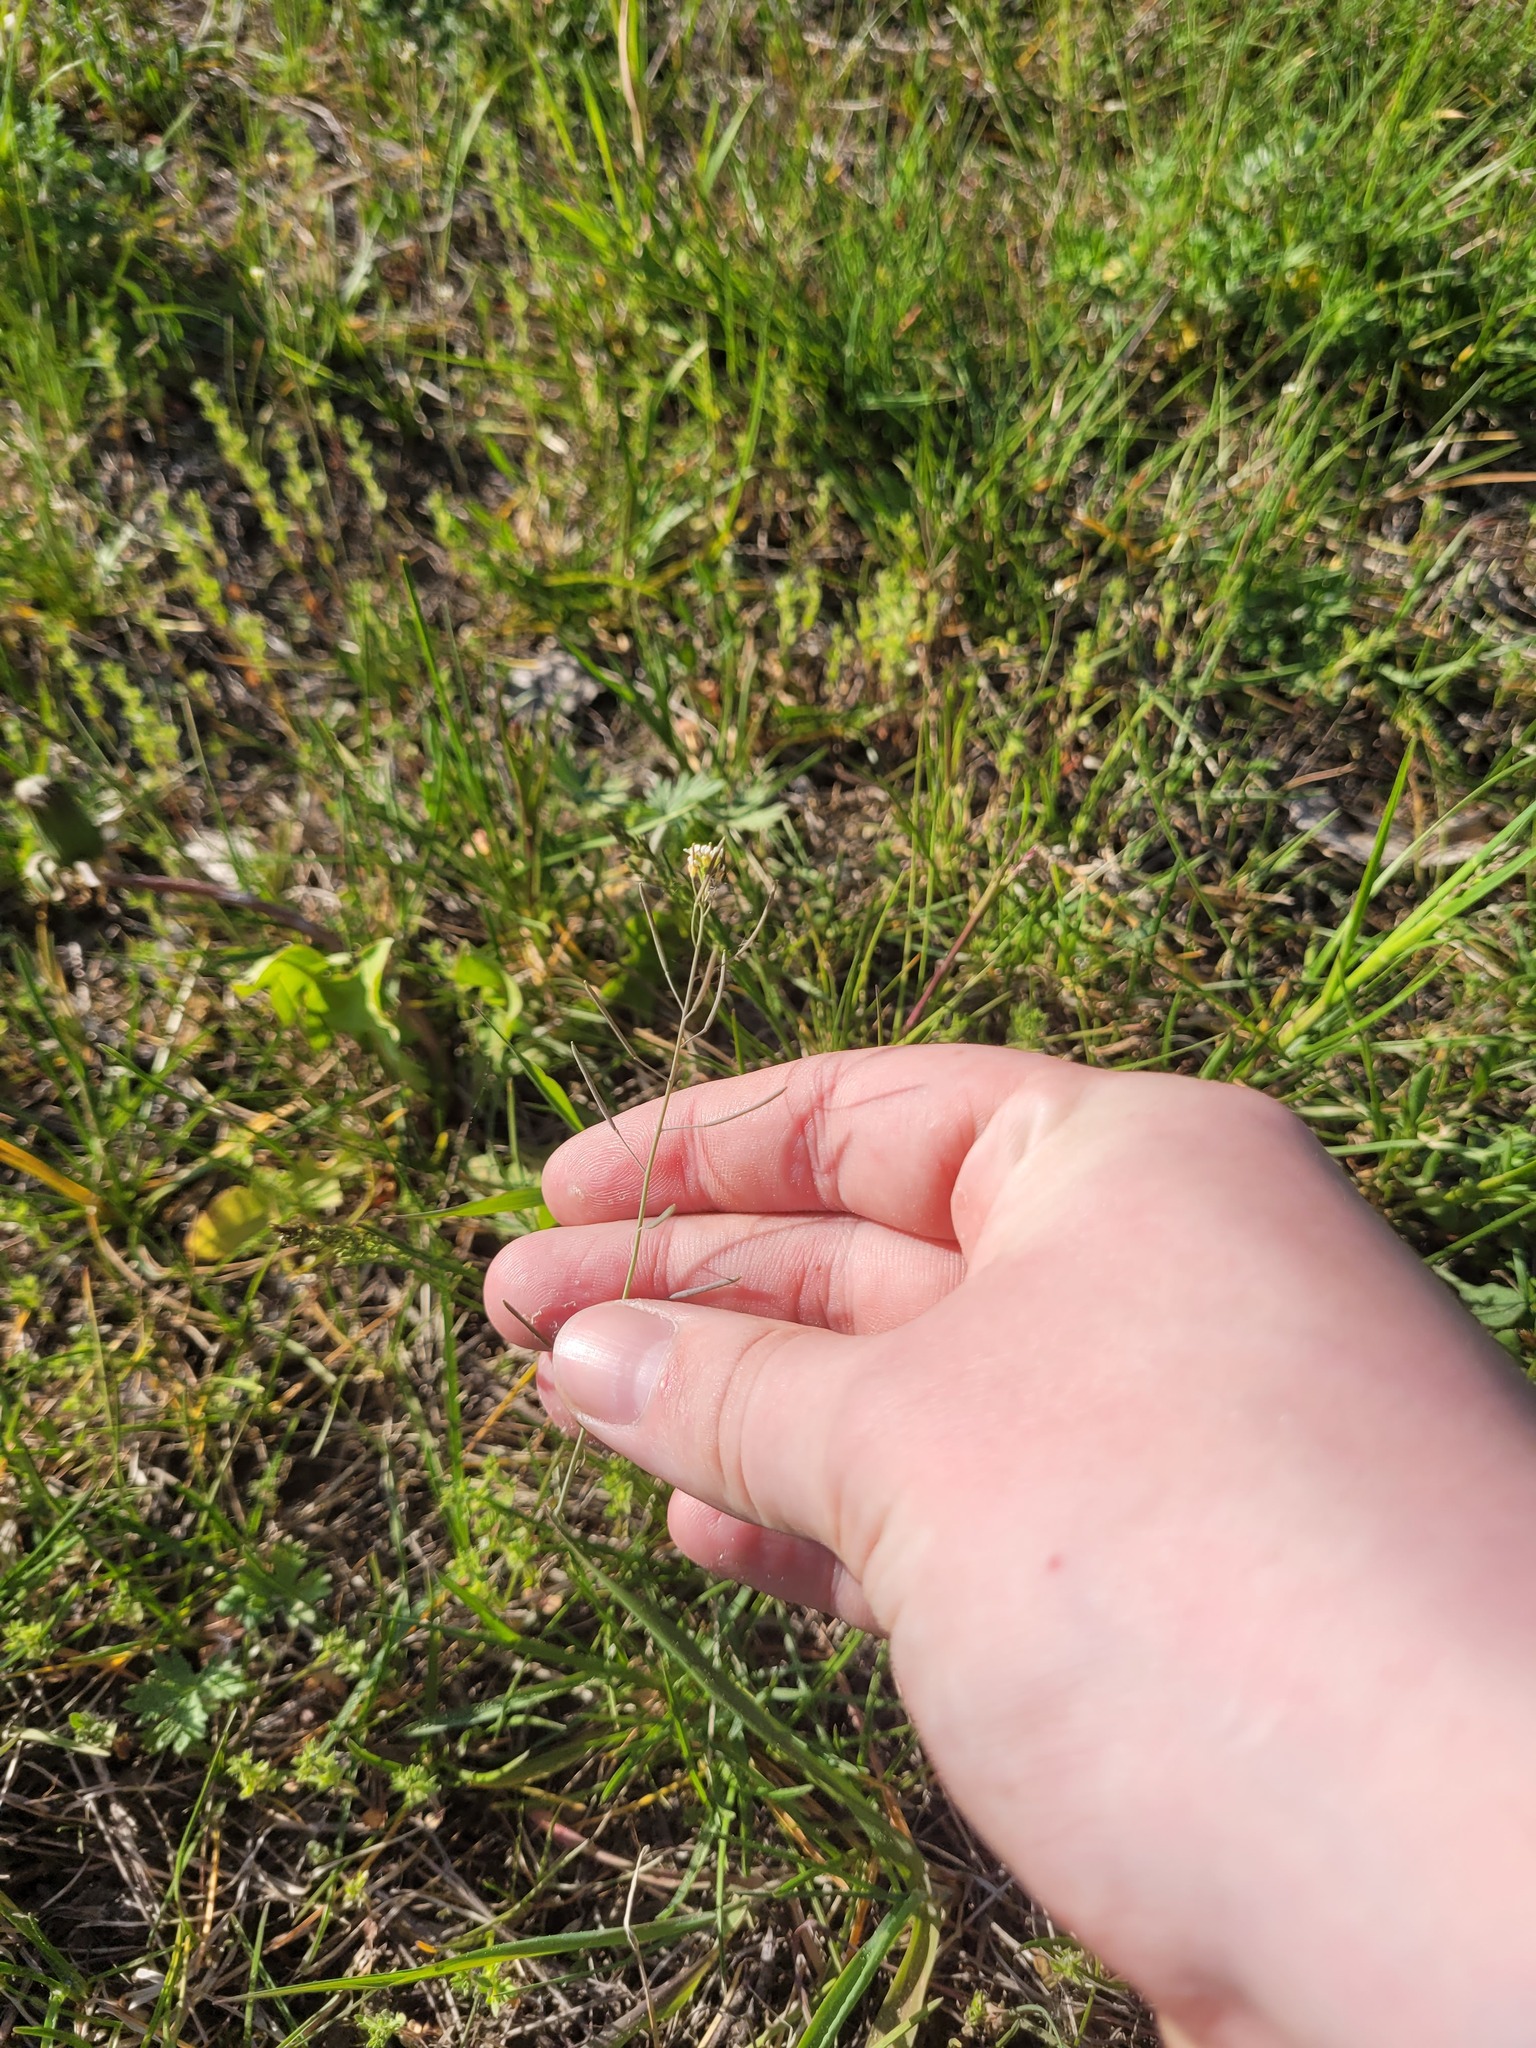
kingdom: Plantae
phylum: Tracheophyta
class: Magnoliopsida
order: Brassicales
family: Brassicaceae
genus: Arabidopsis
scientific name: Arabidopsis thaliana
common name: Thale cress
